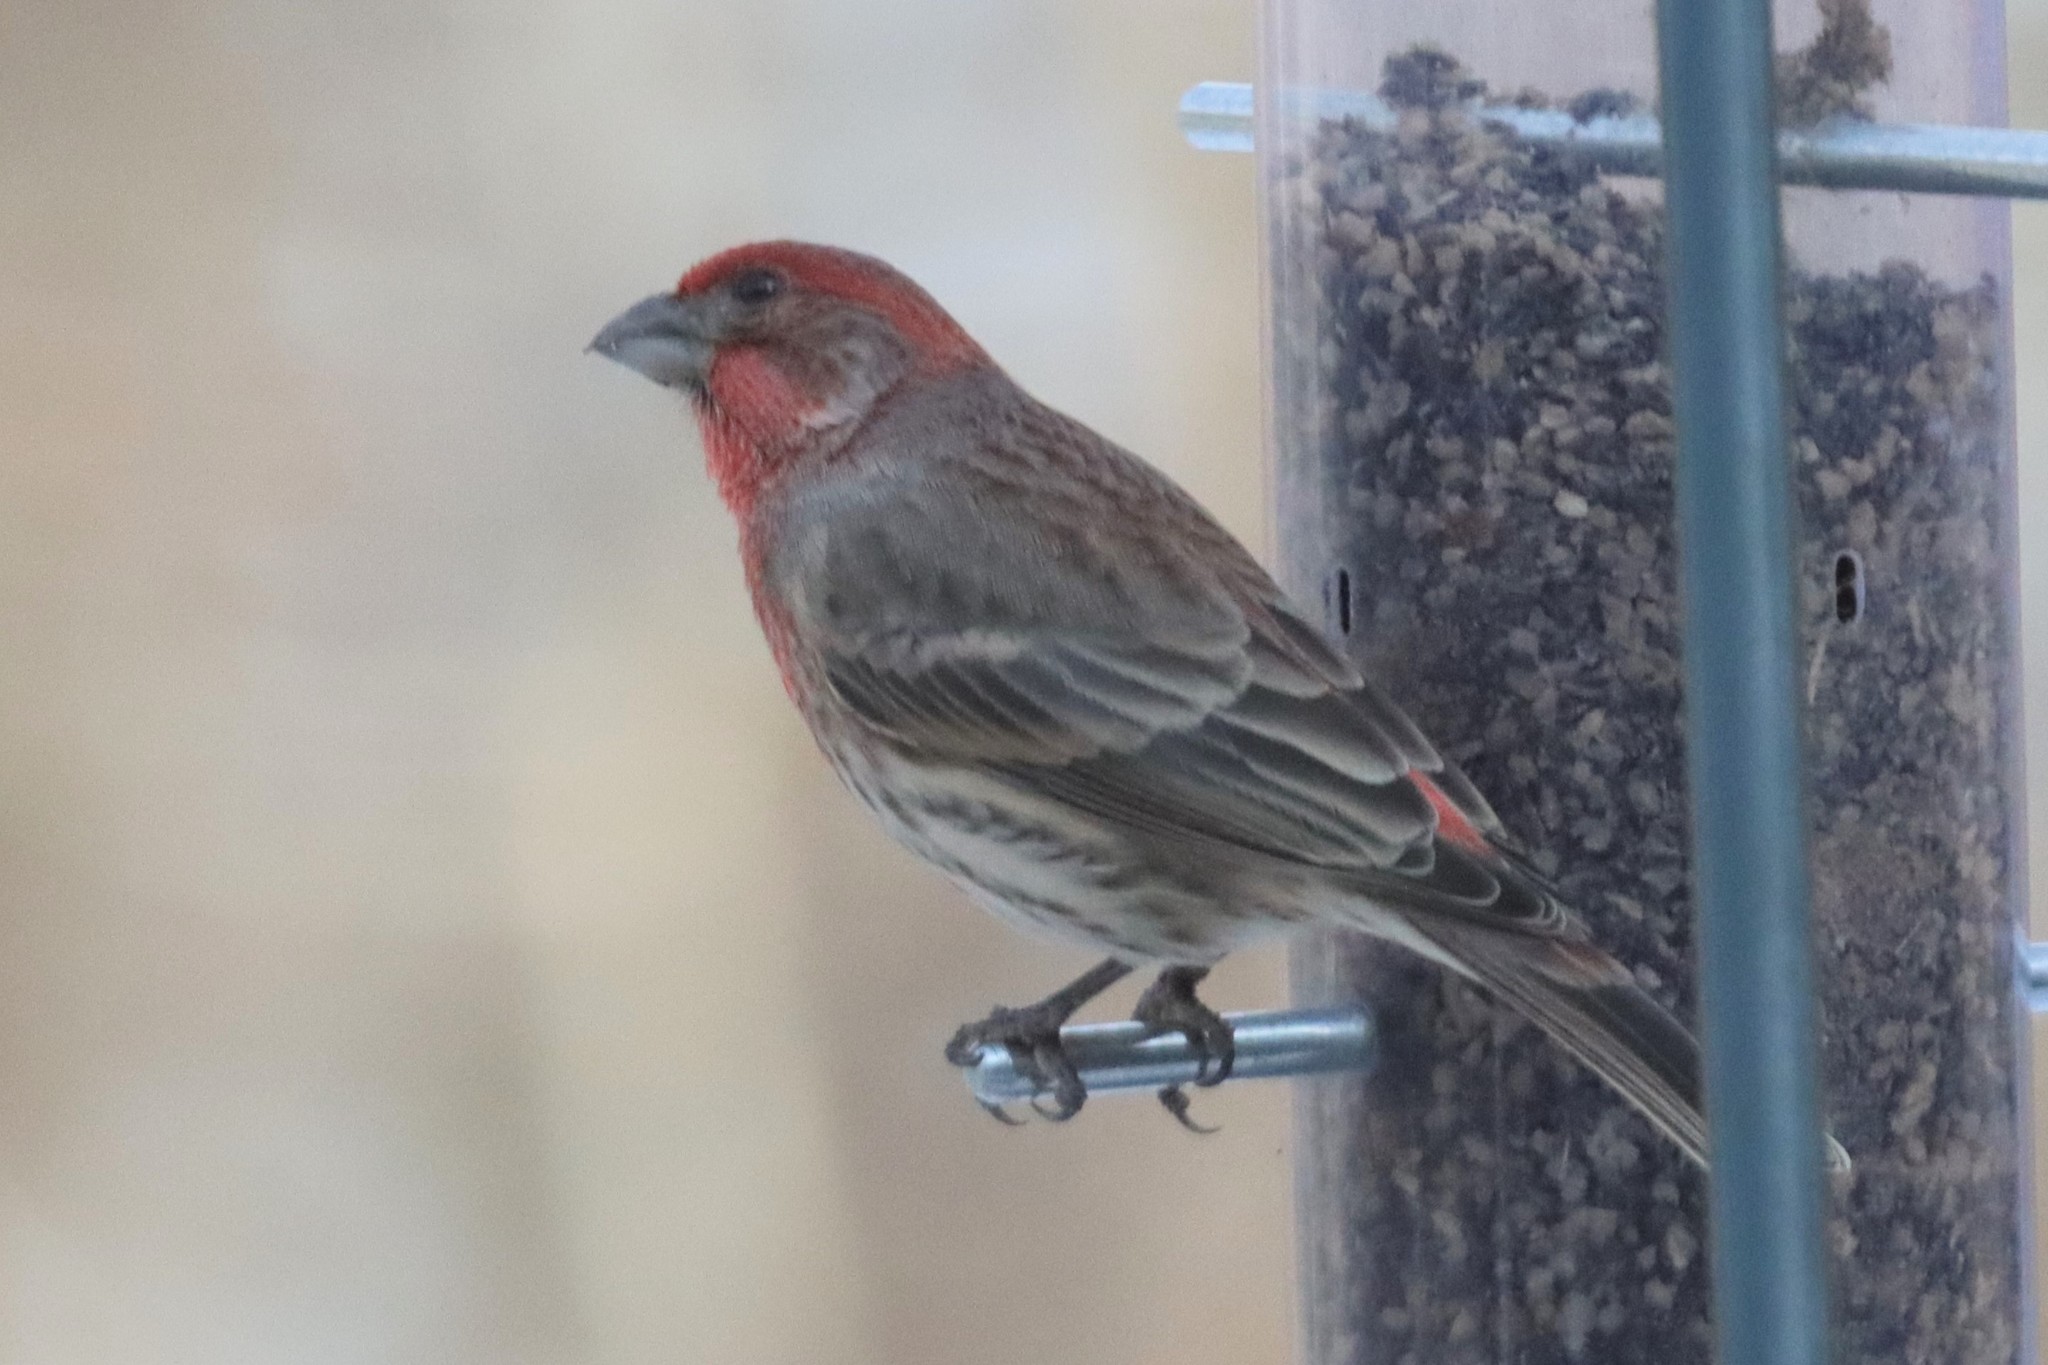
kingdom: Animalia
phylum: Chordata
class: Aves
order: Passeriformes
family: Fringillidae
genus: Haemorhous
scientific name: Haemorhous mexicanus
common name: House finch
